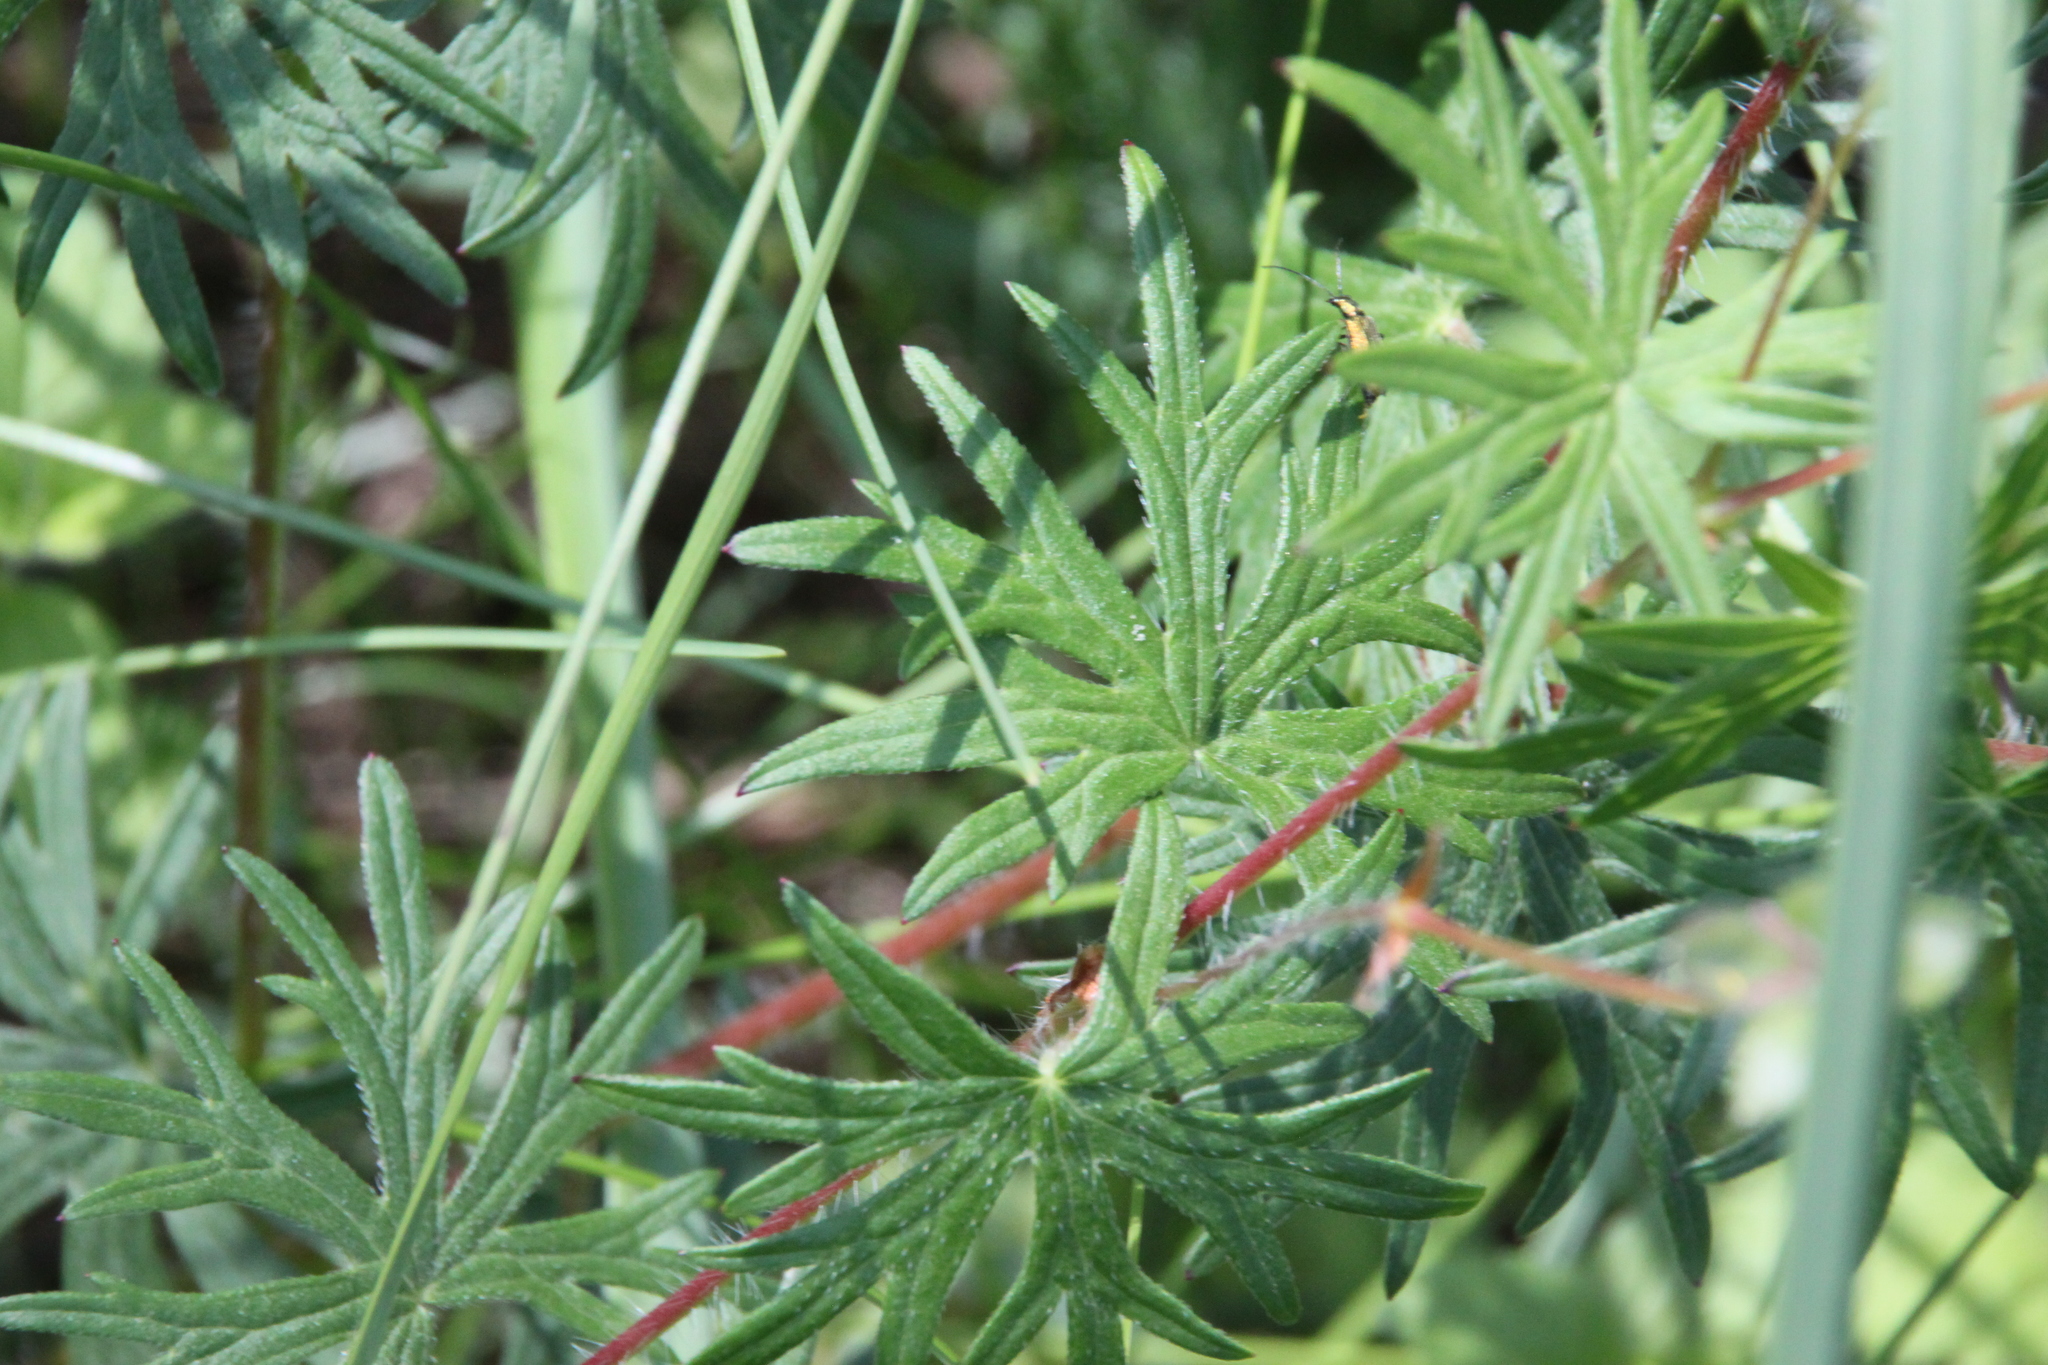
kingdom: Plantae
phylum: Tracheophyta
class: Magnoliopsida
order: Geraniales
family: Geraniaceae
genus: Geranium
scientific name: Geranium sanguineum
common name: Bloody crane's-bill
